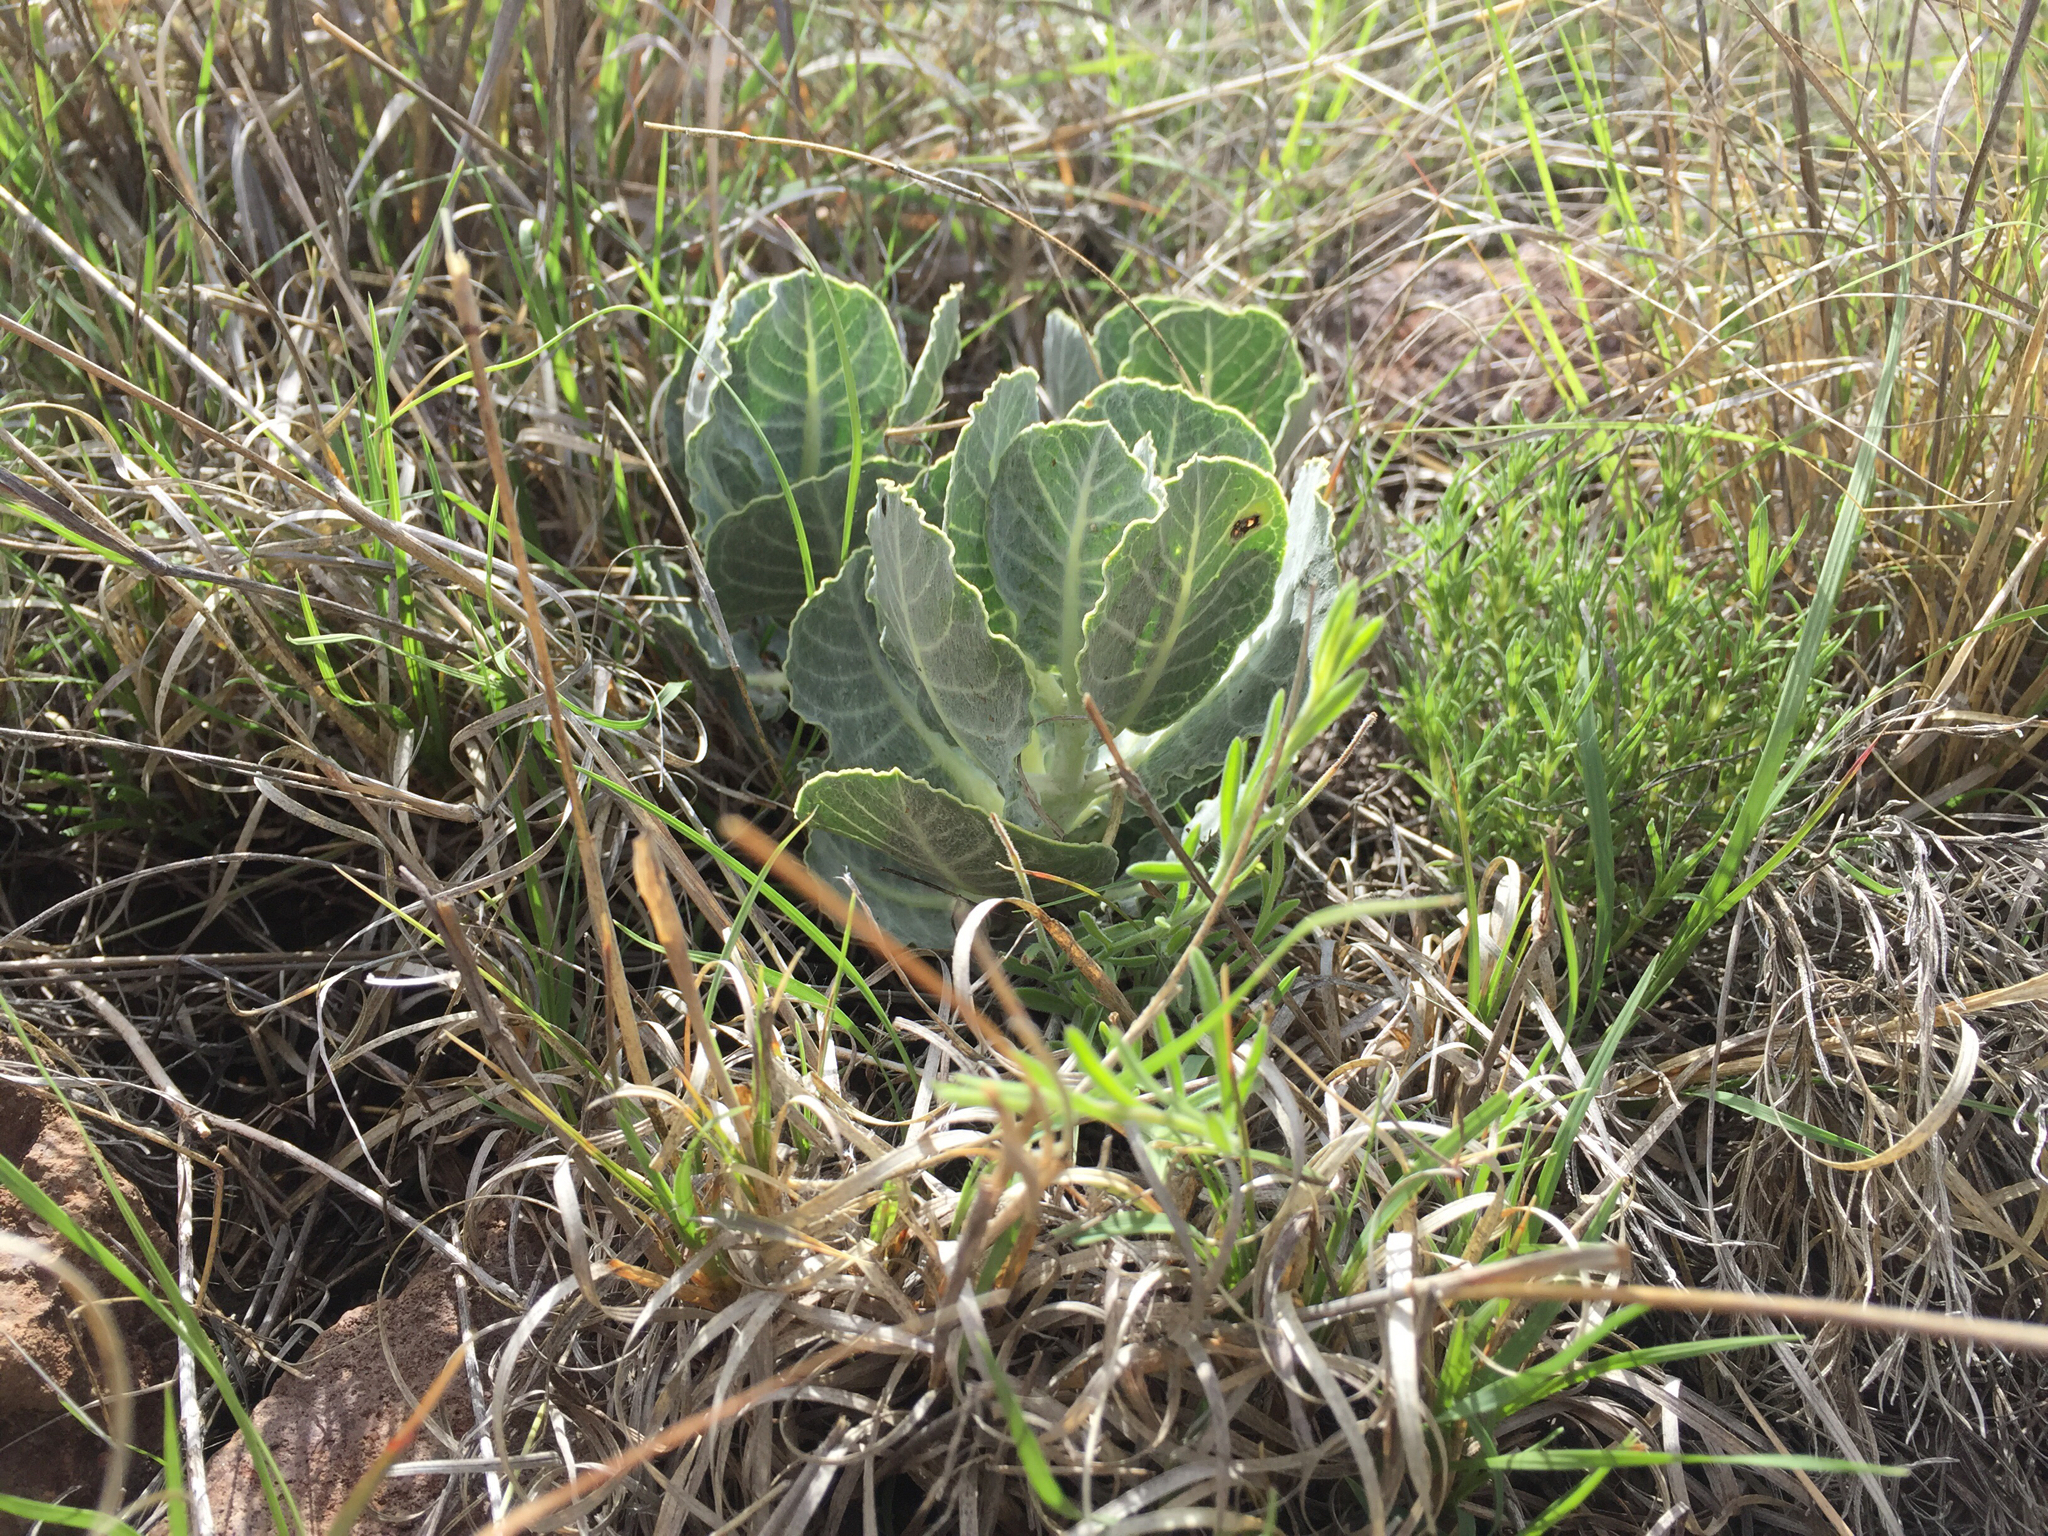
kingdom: Plantae
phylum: Tracheophyta
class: Magnoliopsida
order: Gentianales
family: Apocynaceae
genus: Asclepias
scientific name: Asclepias nummularia
